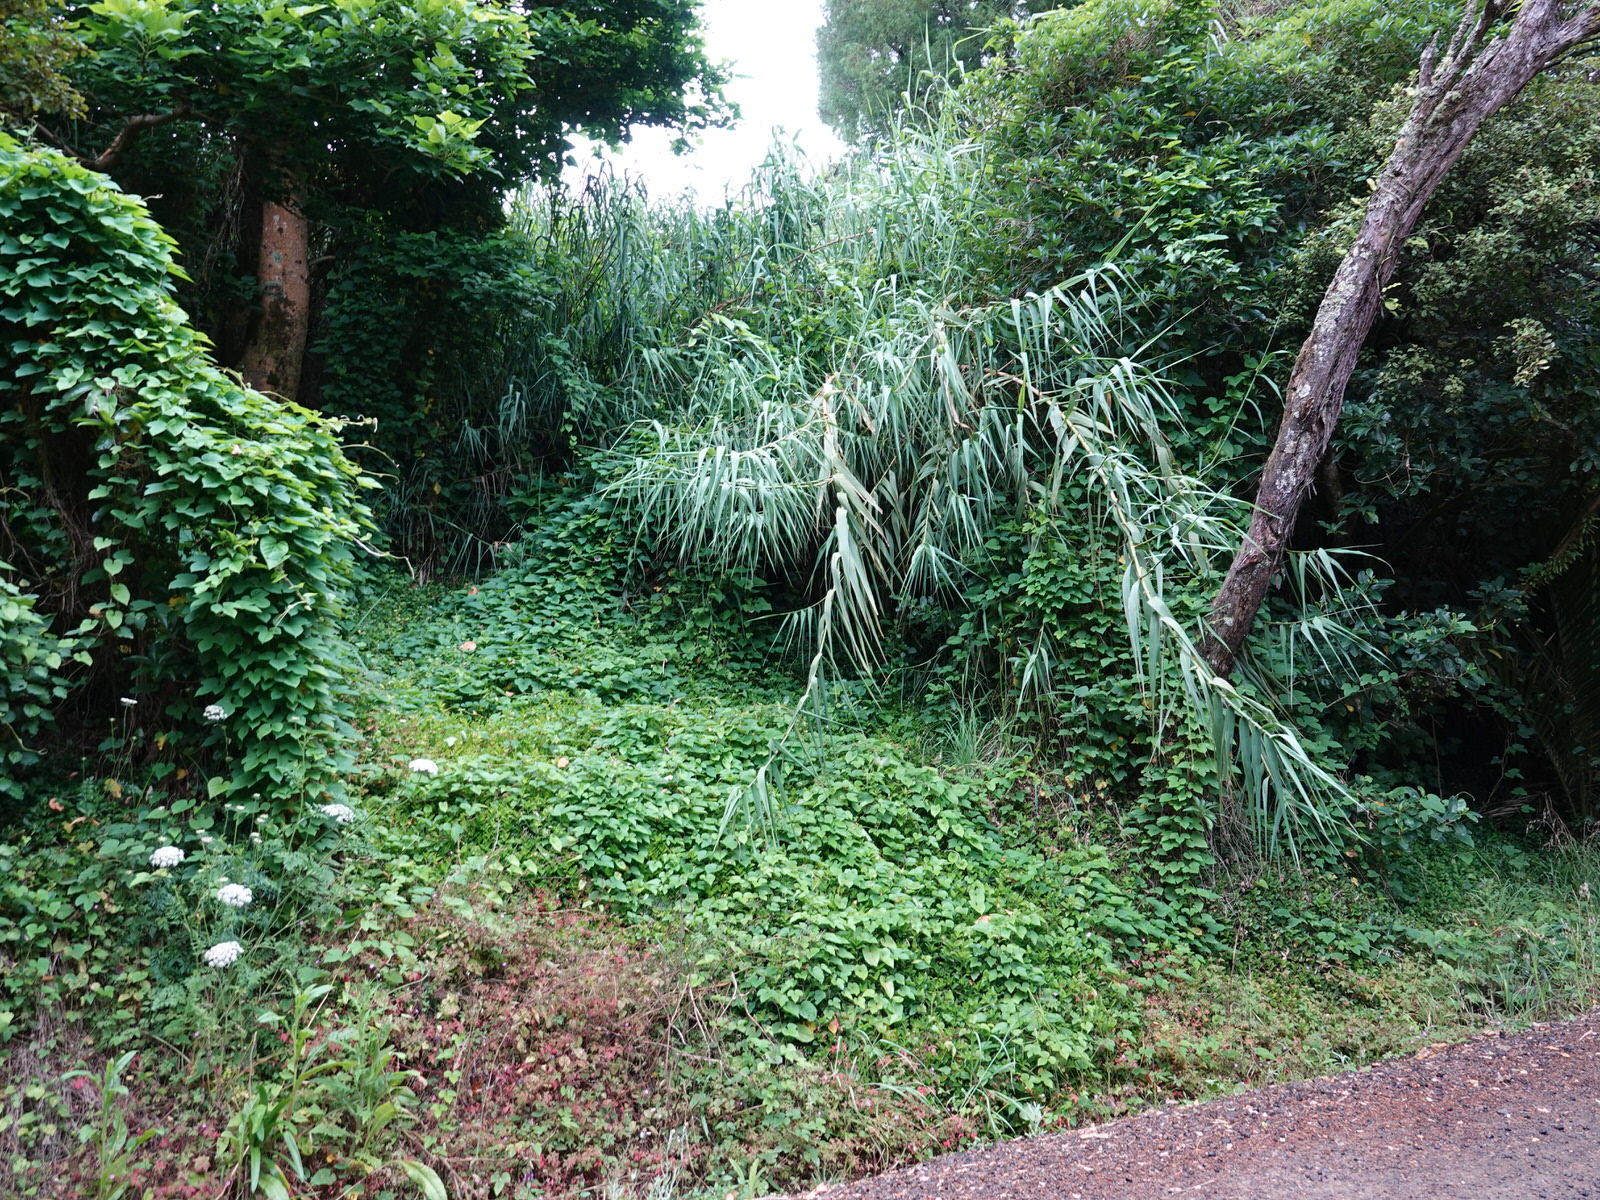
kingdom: Plantae
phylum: Tracheophyta
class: Liliopsida
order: Poales
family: Poaceae
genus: Arundo
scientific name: Arundo donax
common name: Giant reed
